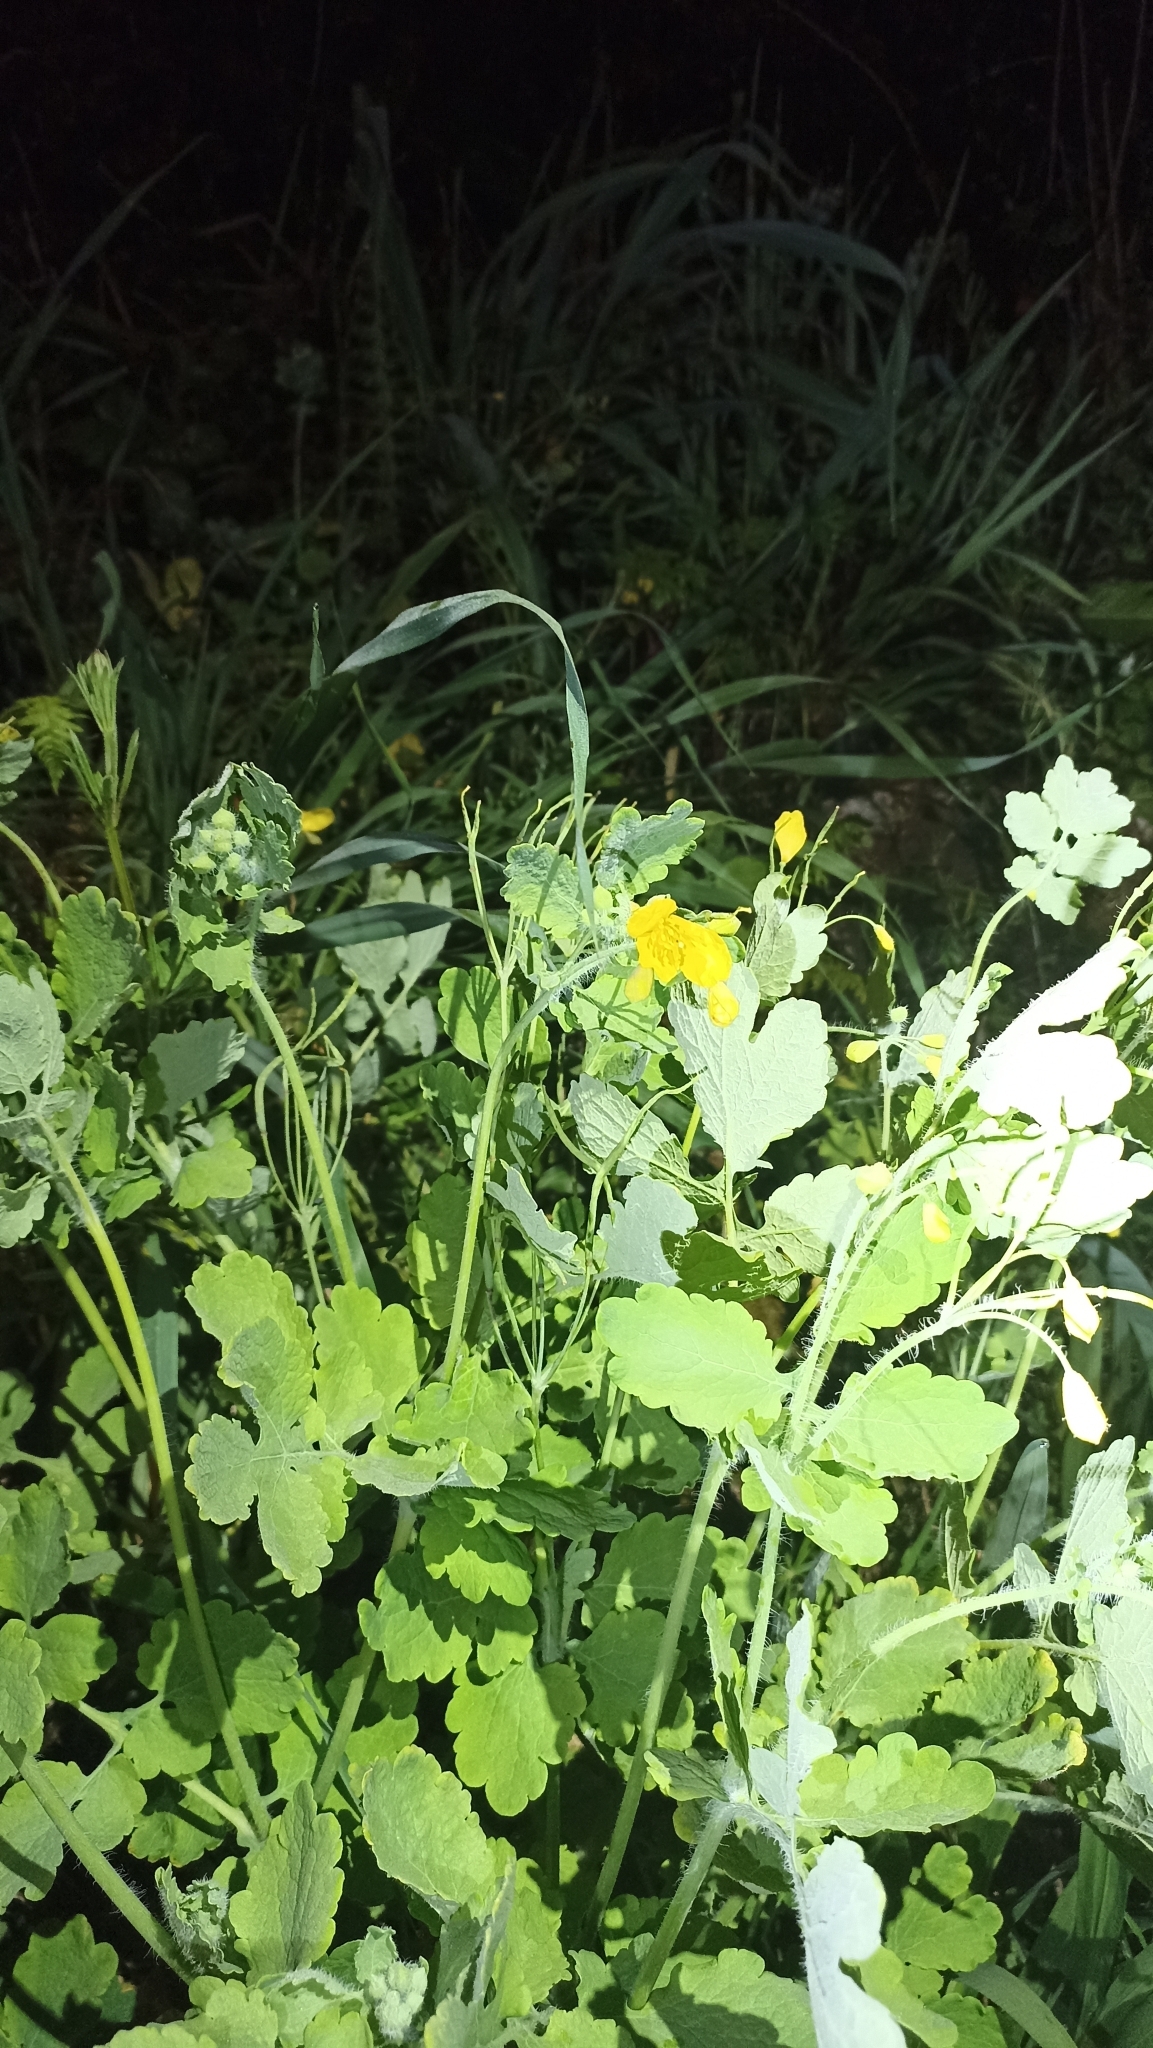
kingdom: Plantae
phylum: Tracheophyta
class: Magnoliopsida
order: Ranunculales
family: Papaveraceae
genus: Chelidonium
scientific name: Chelidonium majus
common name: Greater celandine
